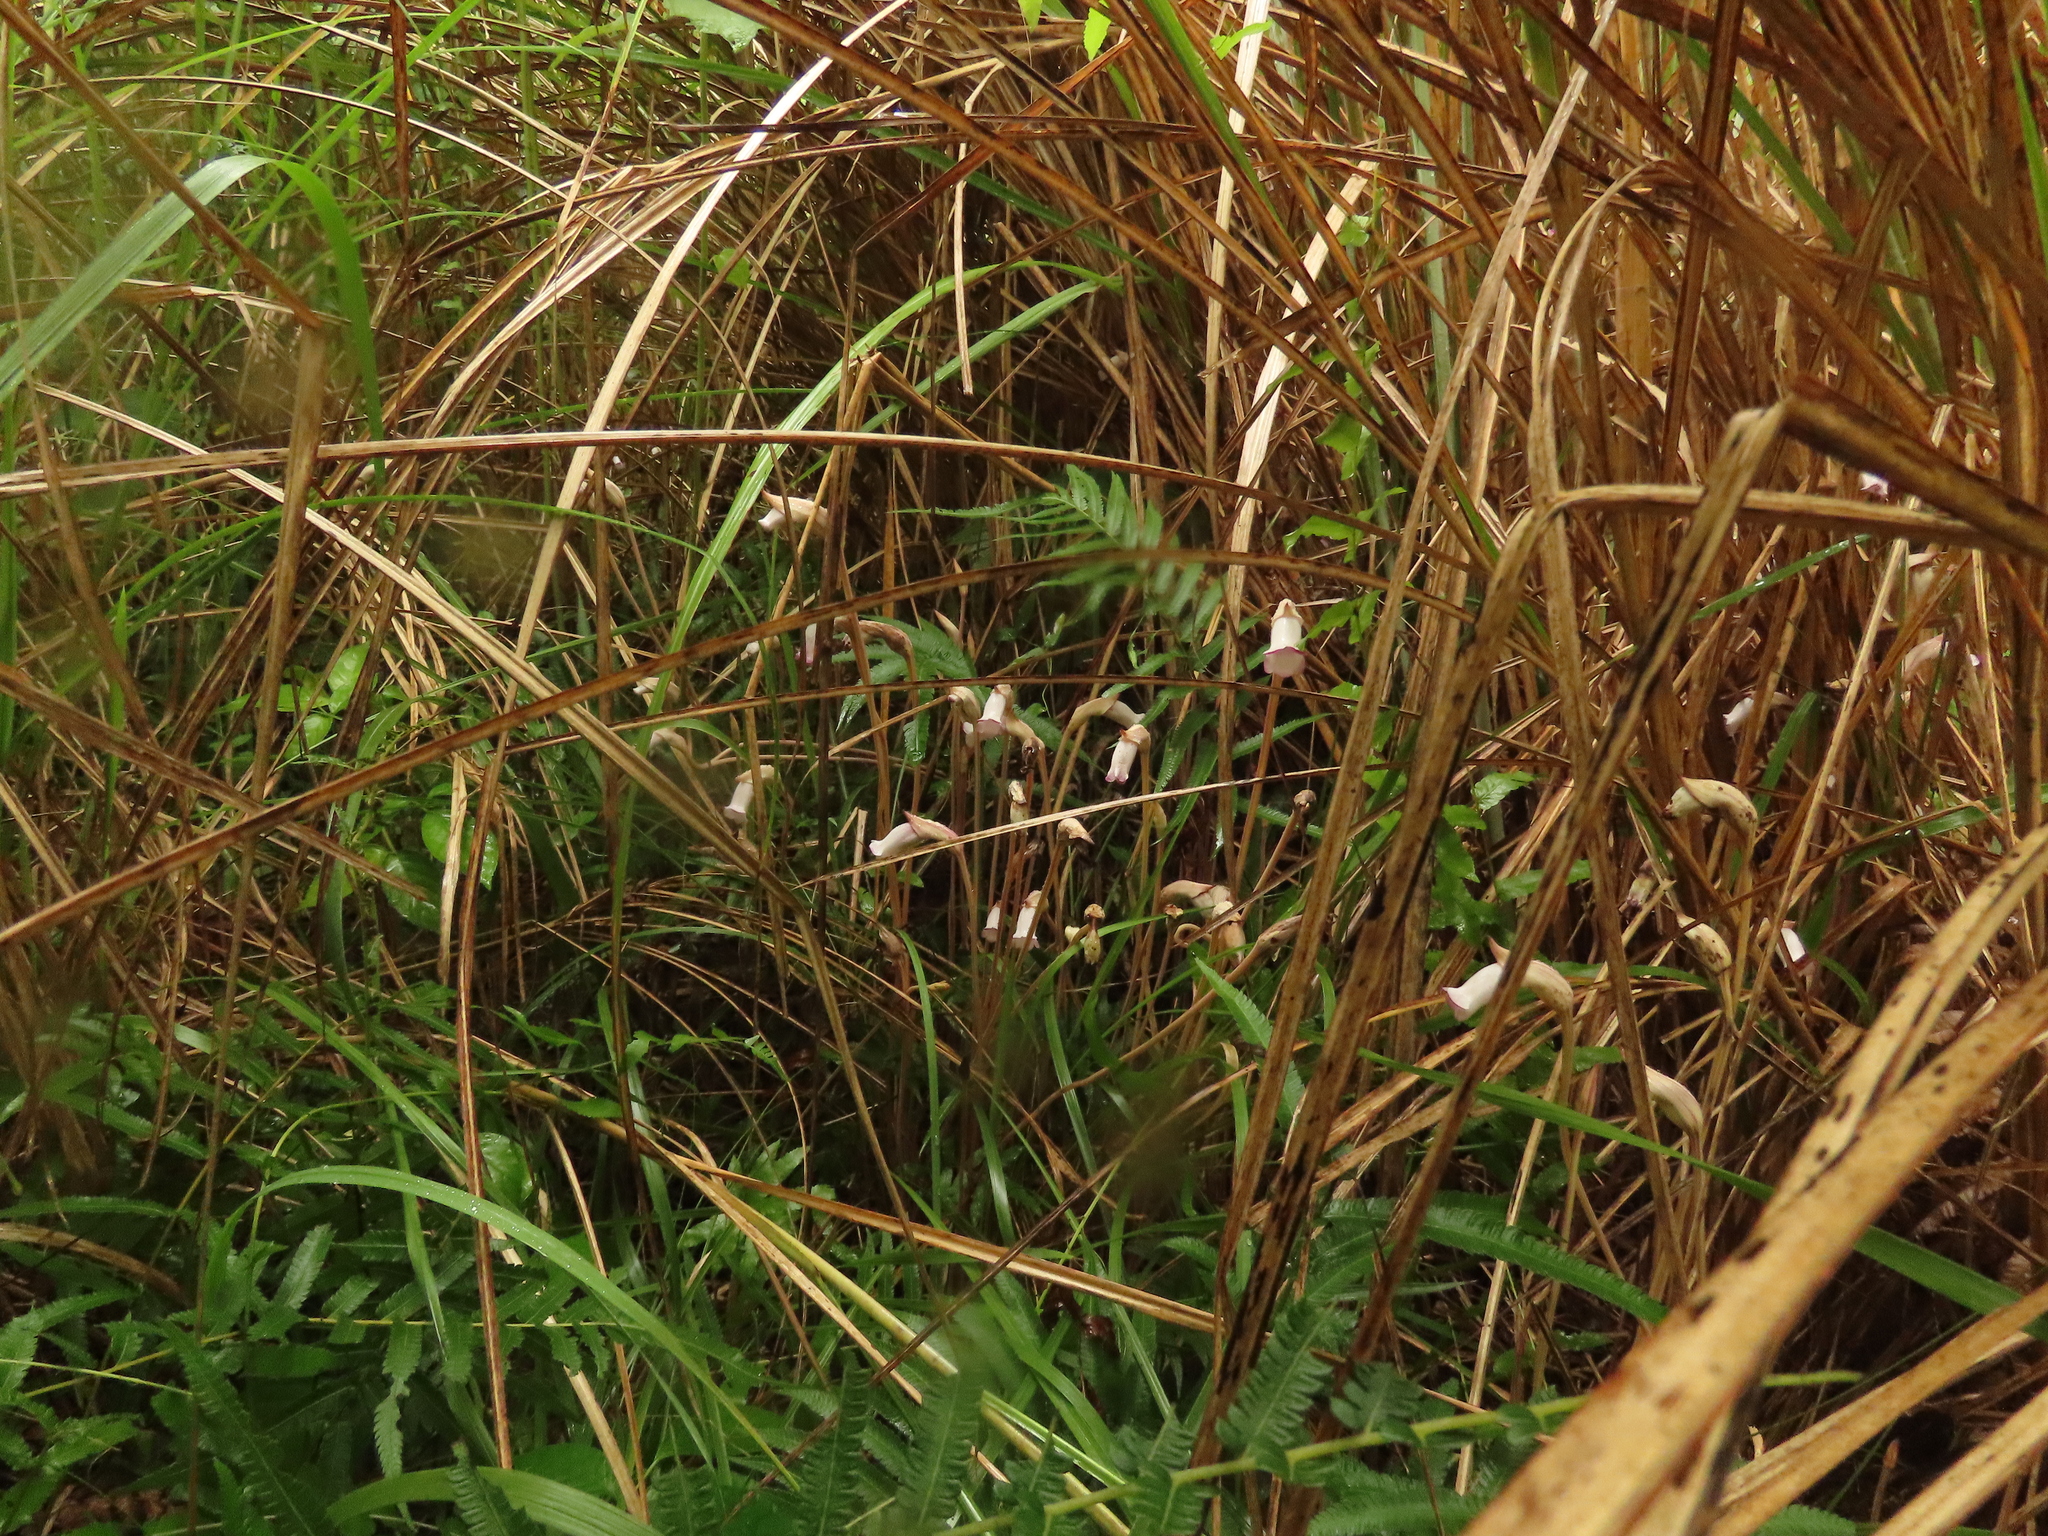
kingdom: Plantae
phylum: Tracheophyta
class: Magnoliopsida
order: Lamiales
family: Orobanchaceae
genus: Aeginetia
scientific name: Aeginetia indica
